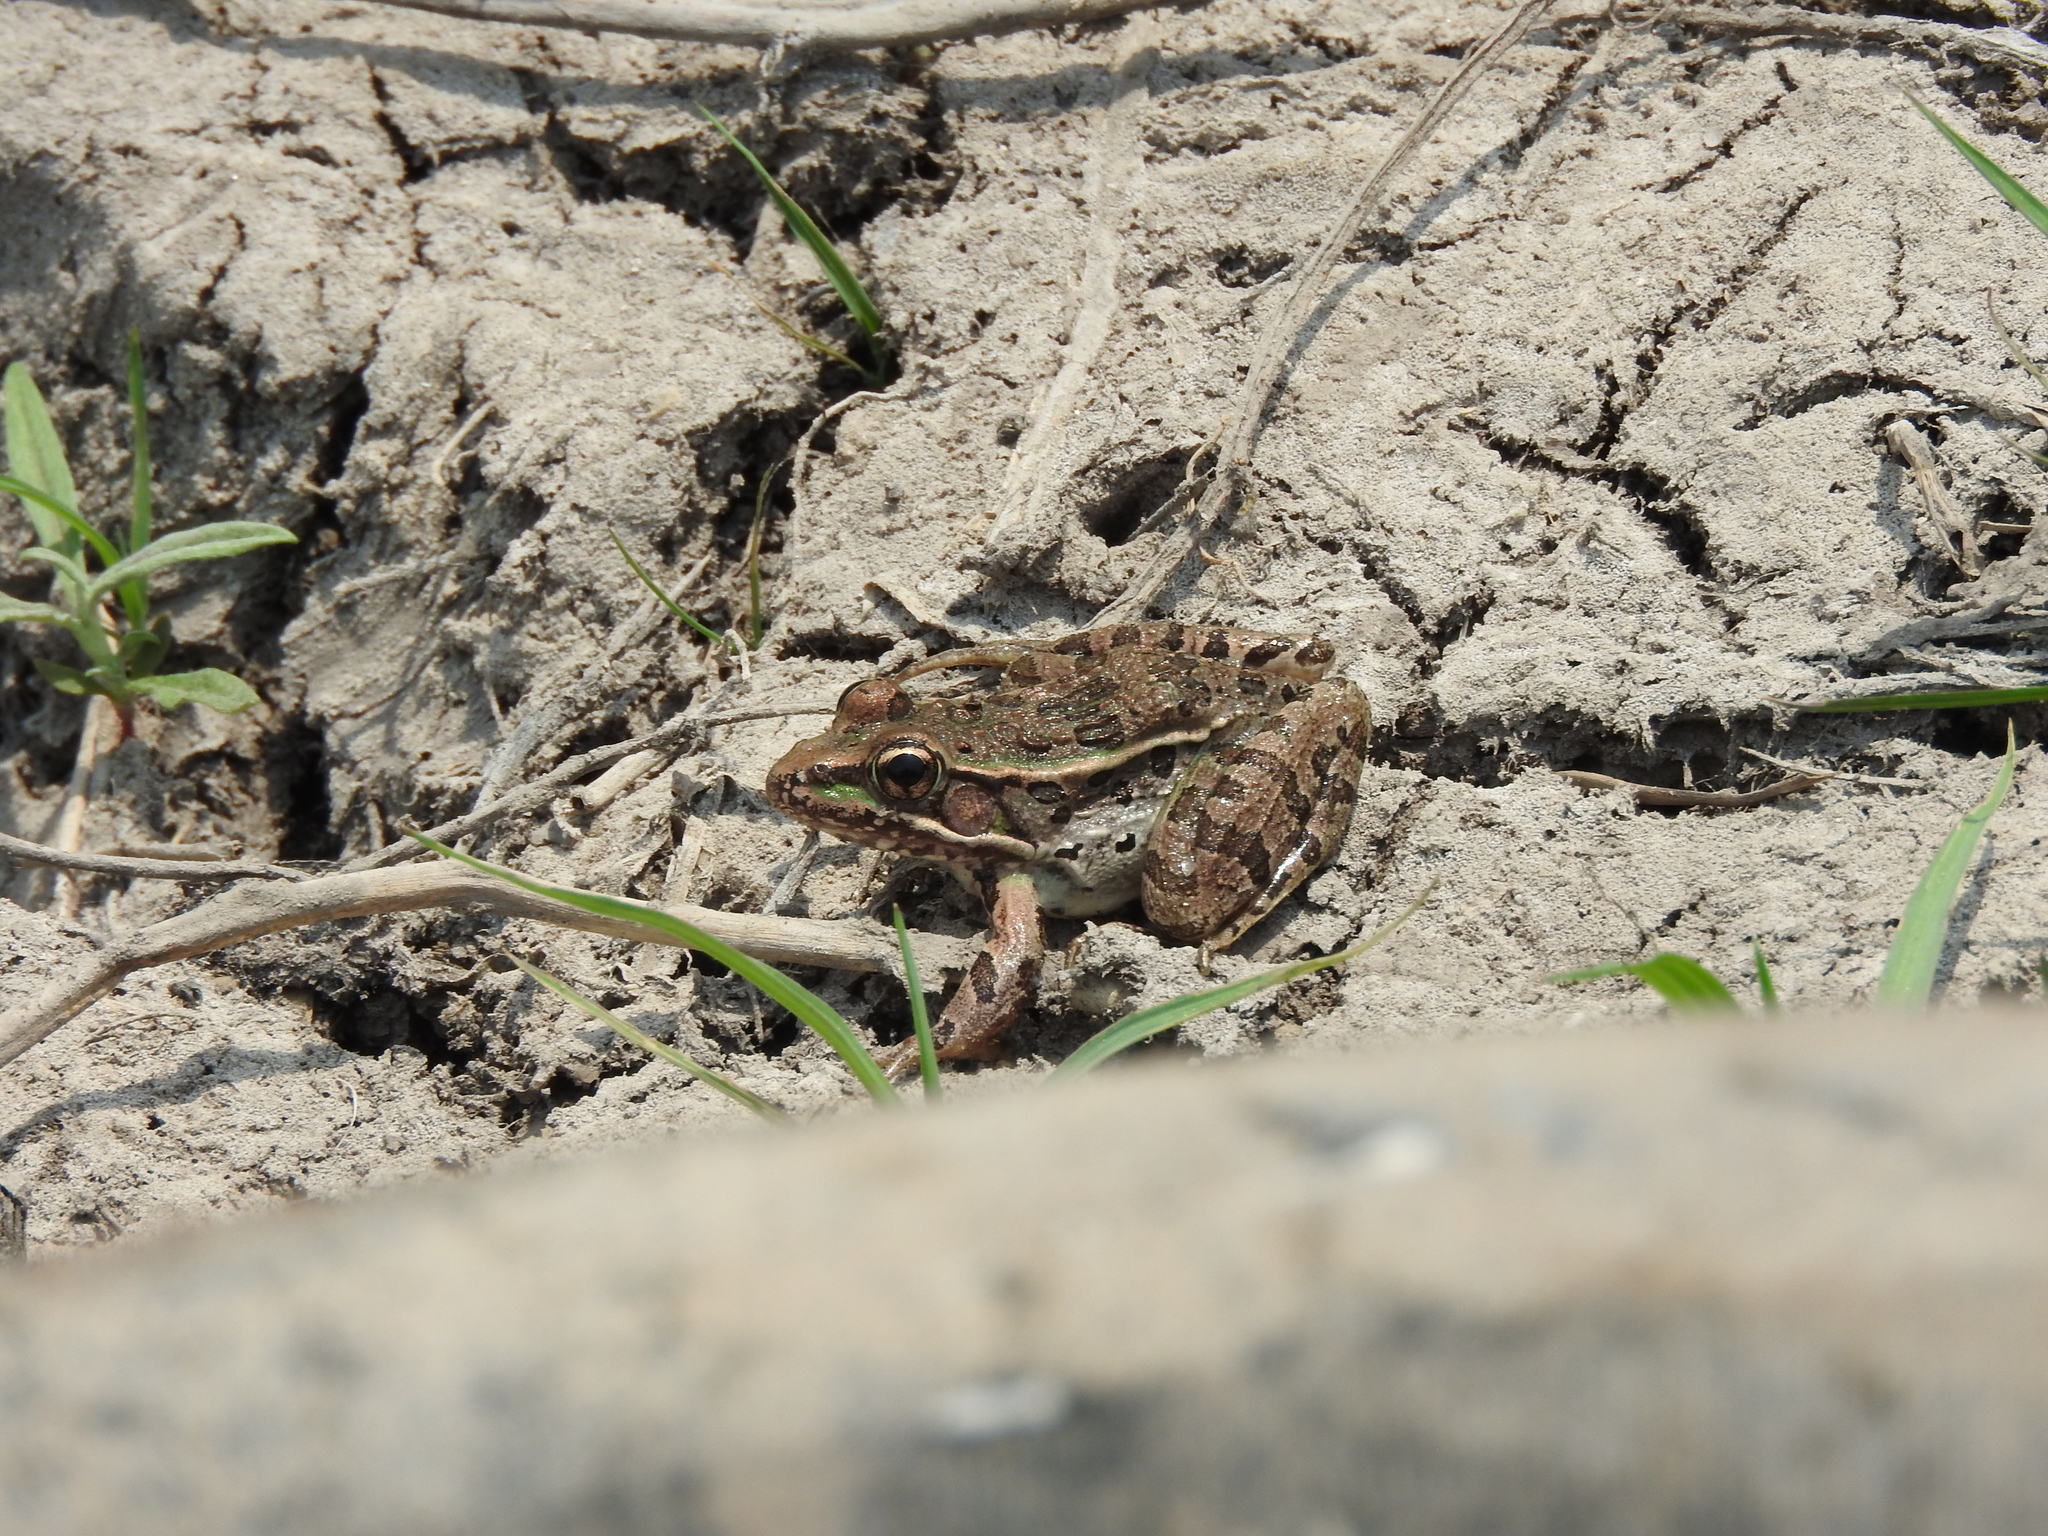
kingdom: Animalia
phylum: Chordata
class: Amphibia
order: Anura
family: Ranidae
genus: Lithobates
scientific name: Lithobates neovolcanicus
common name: Transverse volcanic leopard frog
